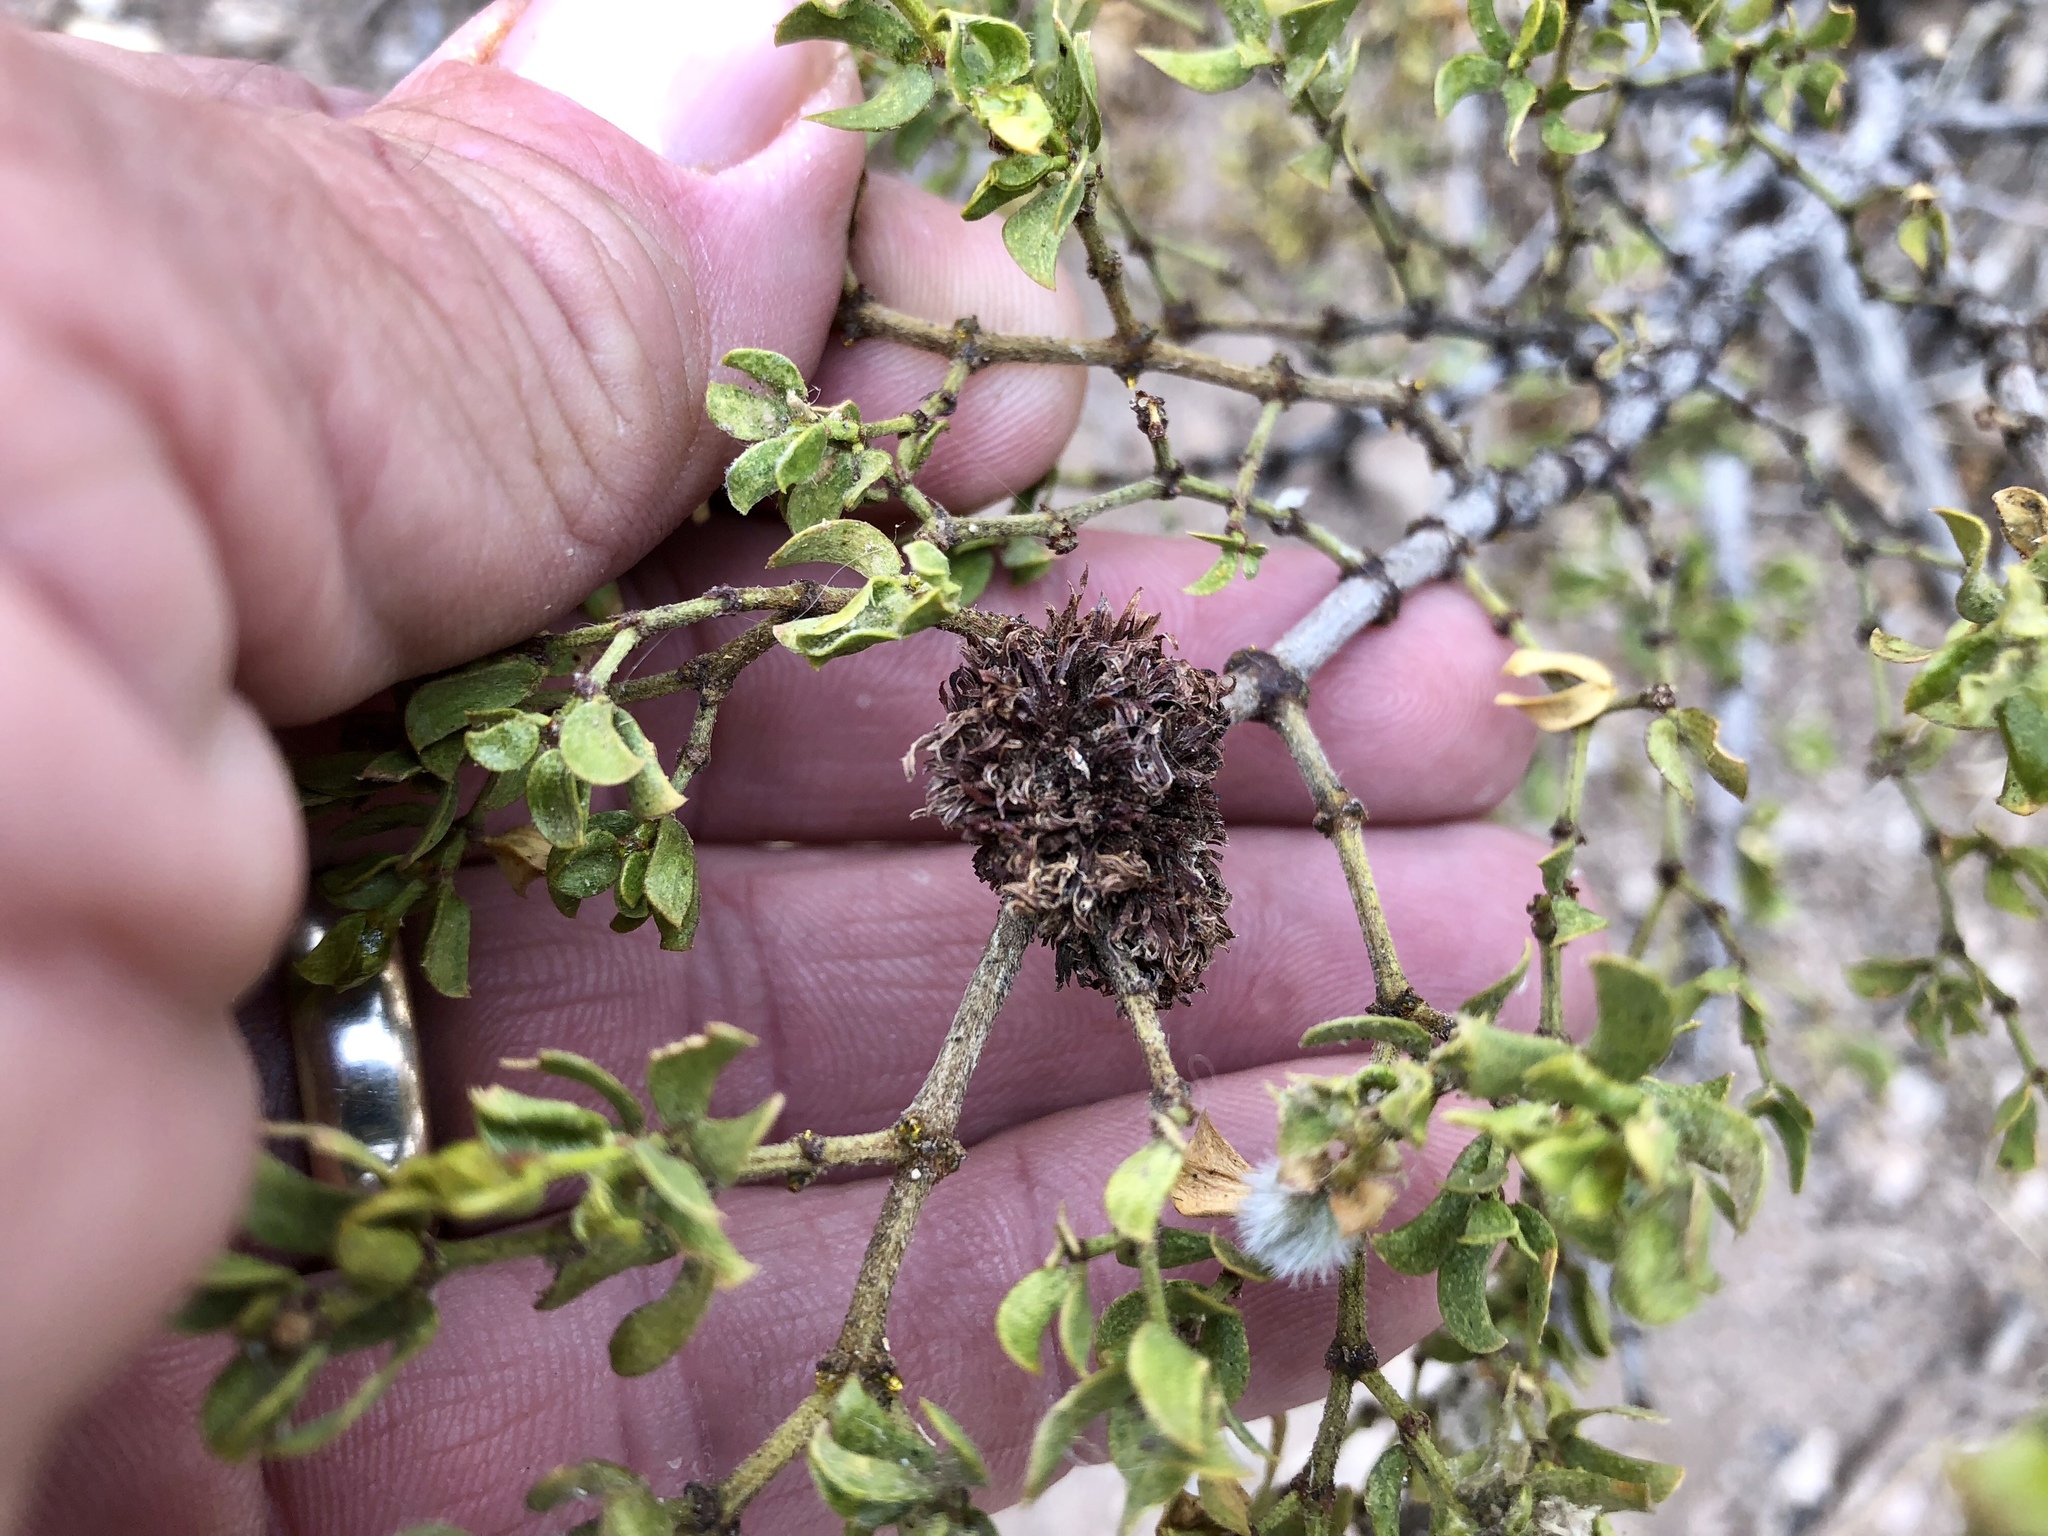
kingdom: Animalia
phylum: Arthropoda
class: Insecta
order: Diptera
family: Cecidomyiidae
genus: Asphondylia
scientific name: Asphondylia auripila
